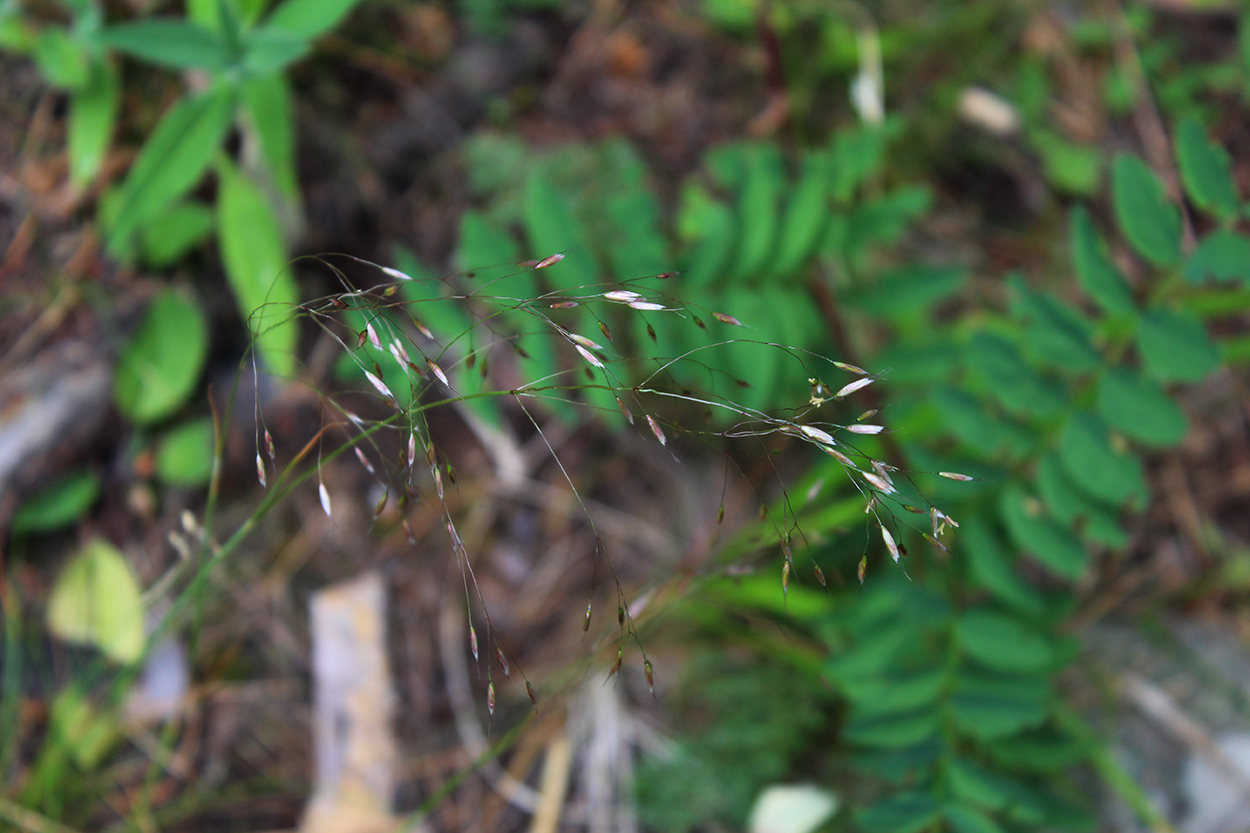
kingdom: Plantae
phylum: Tracheophyta
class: Liliopsida
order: Poales
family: Poaceae
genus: Avenella
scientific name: Avenella flexuosa
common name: Wavy hairgrass
